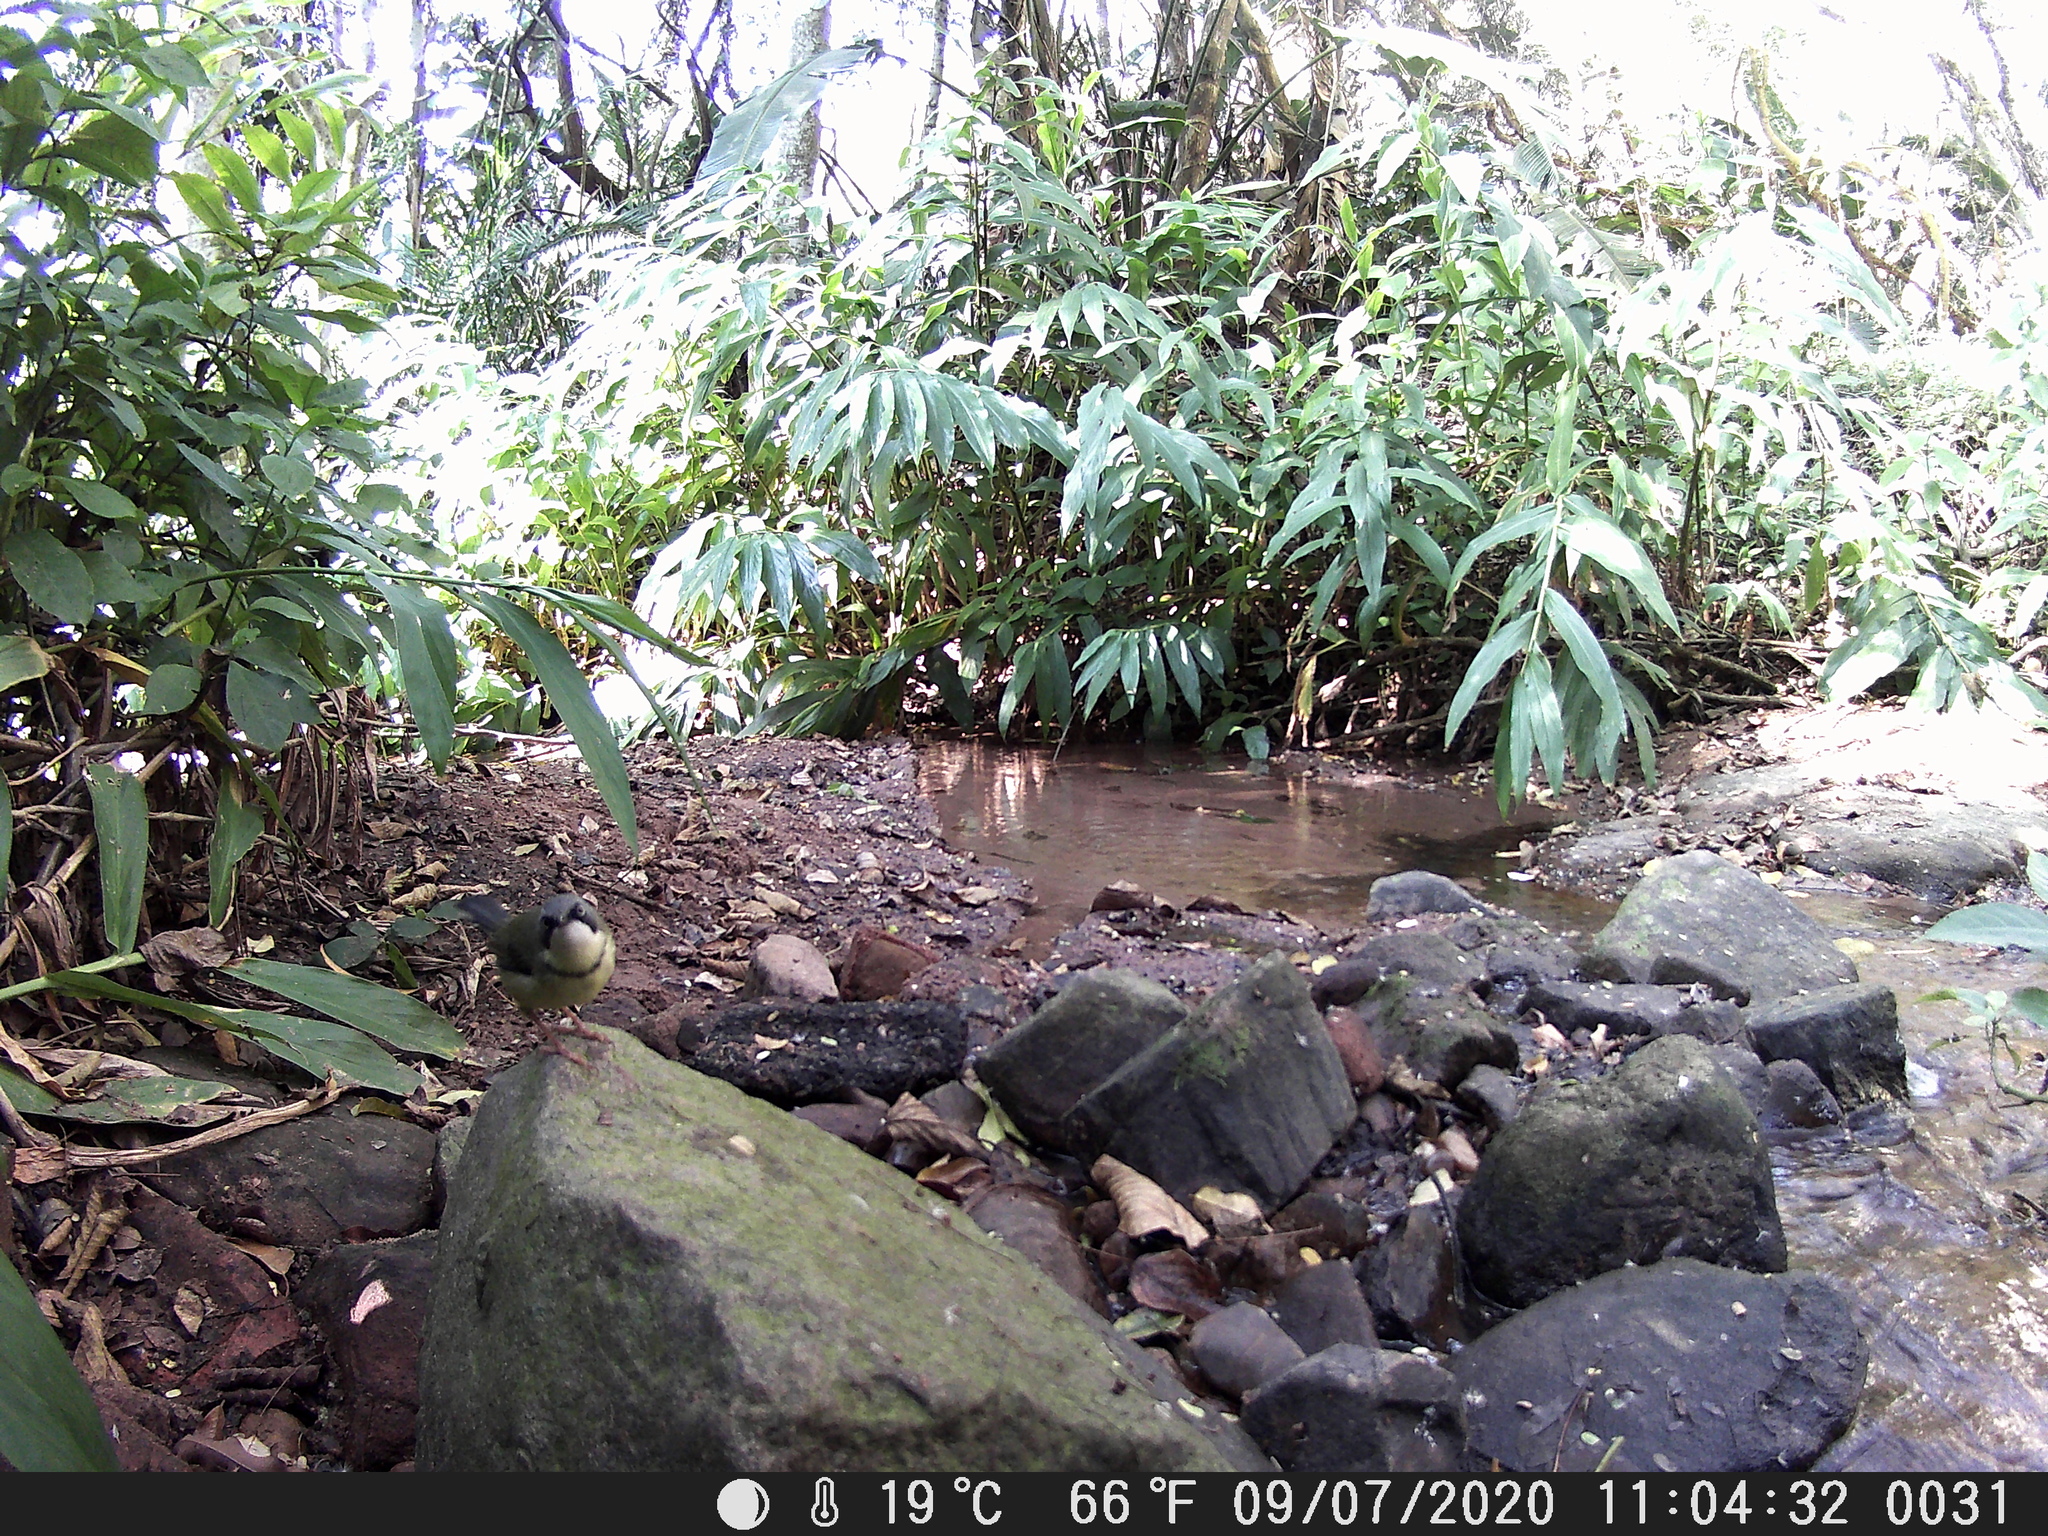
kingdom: Animalia
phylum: Chordata
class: Aves
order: Passeriformes
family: Cisticolidae
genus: Apalis
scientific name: Apalis thoracica
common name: Bar-throated apalis
